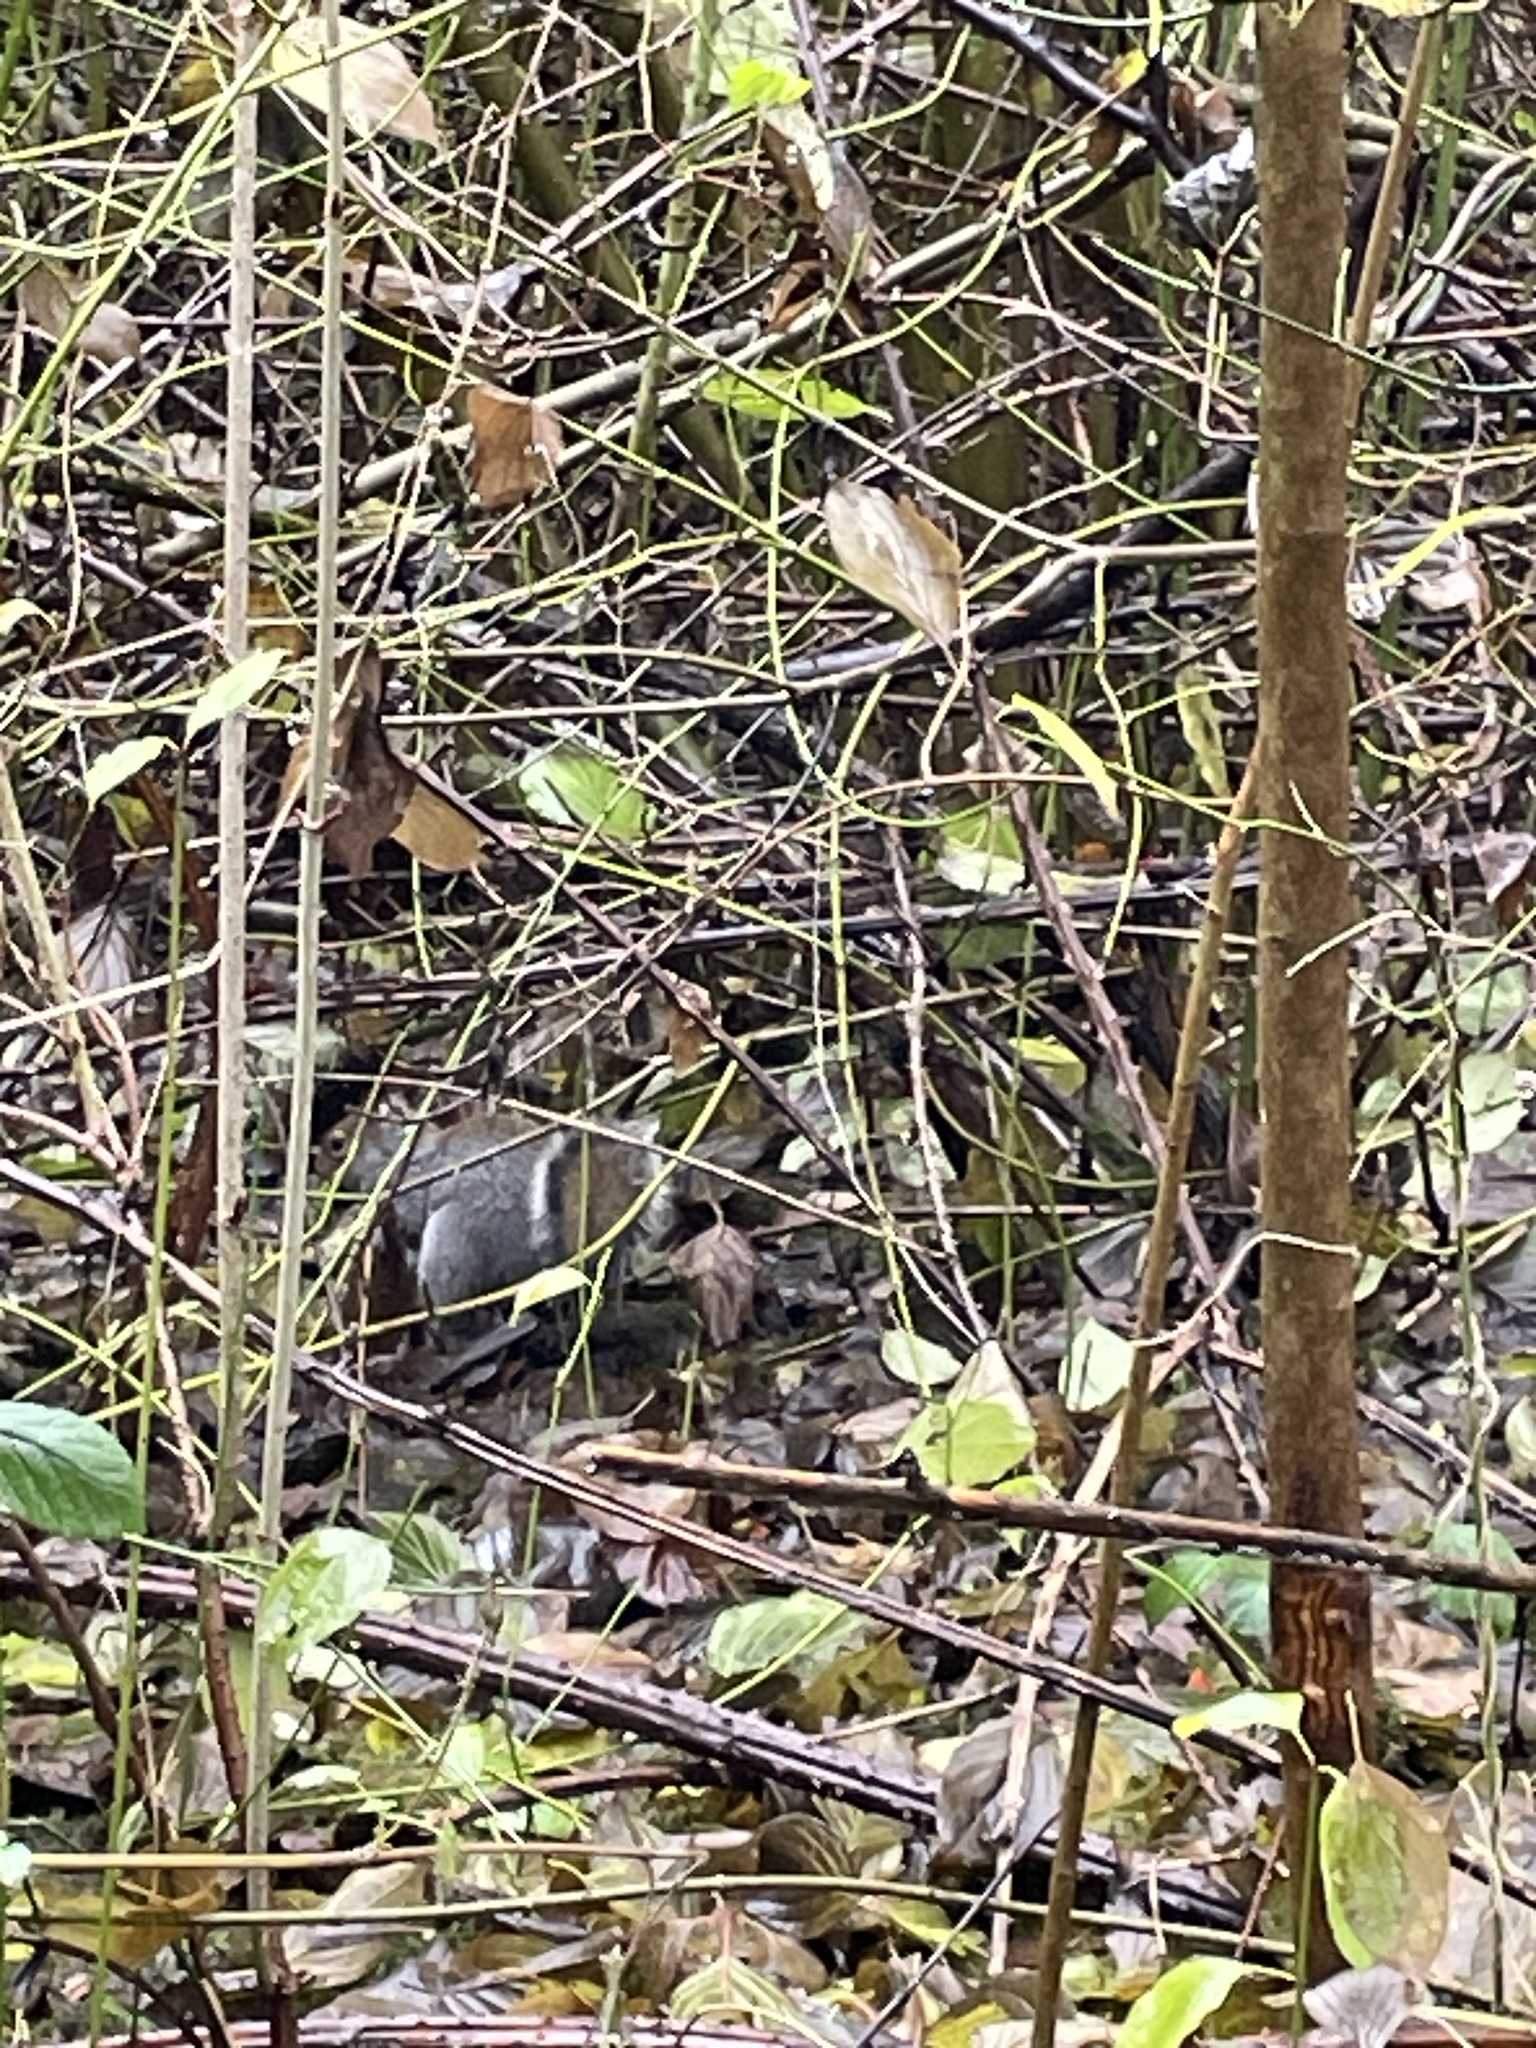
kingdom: Animalia
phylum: Chordata
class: Mammalia
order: Rodentia
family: Sciuridae
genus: Sciurus
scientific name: Sciurus carolinensis
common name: Eastern gray squirrel
